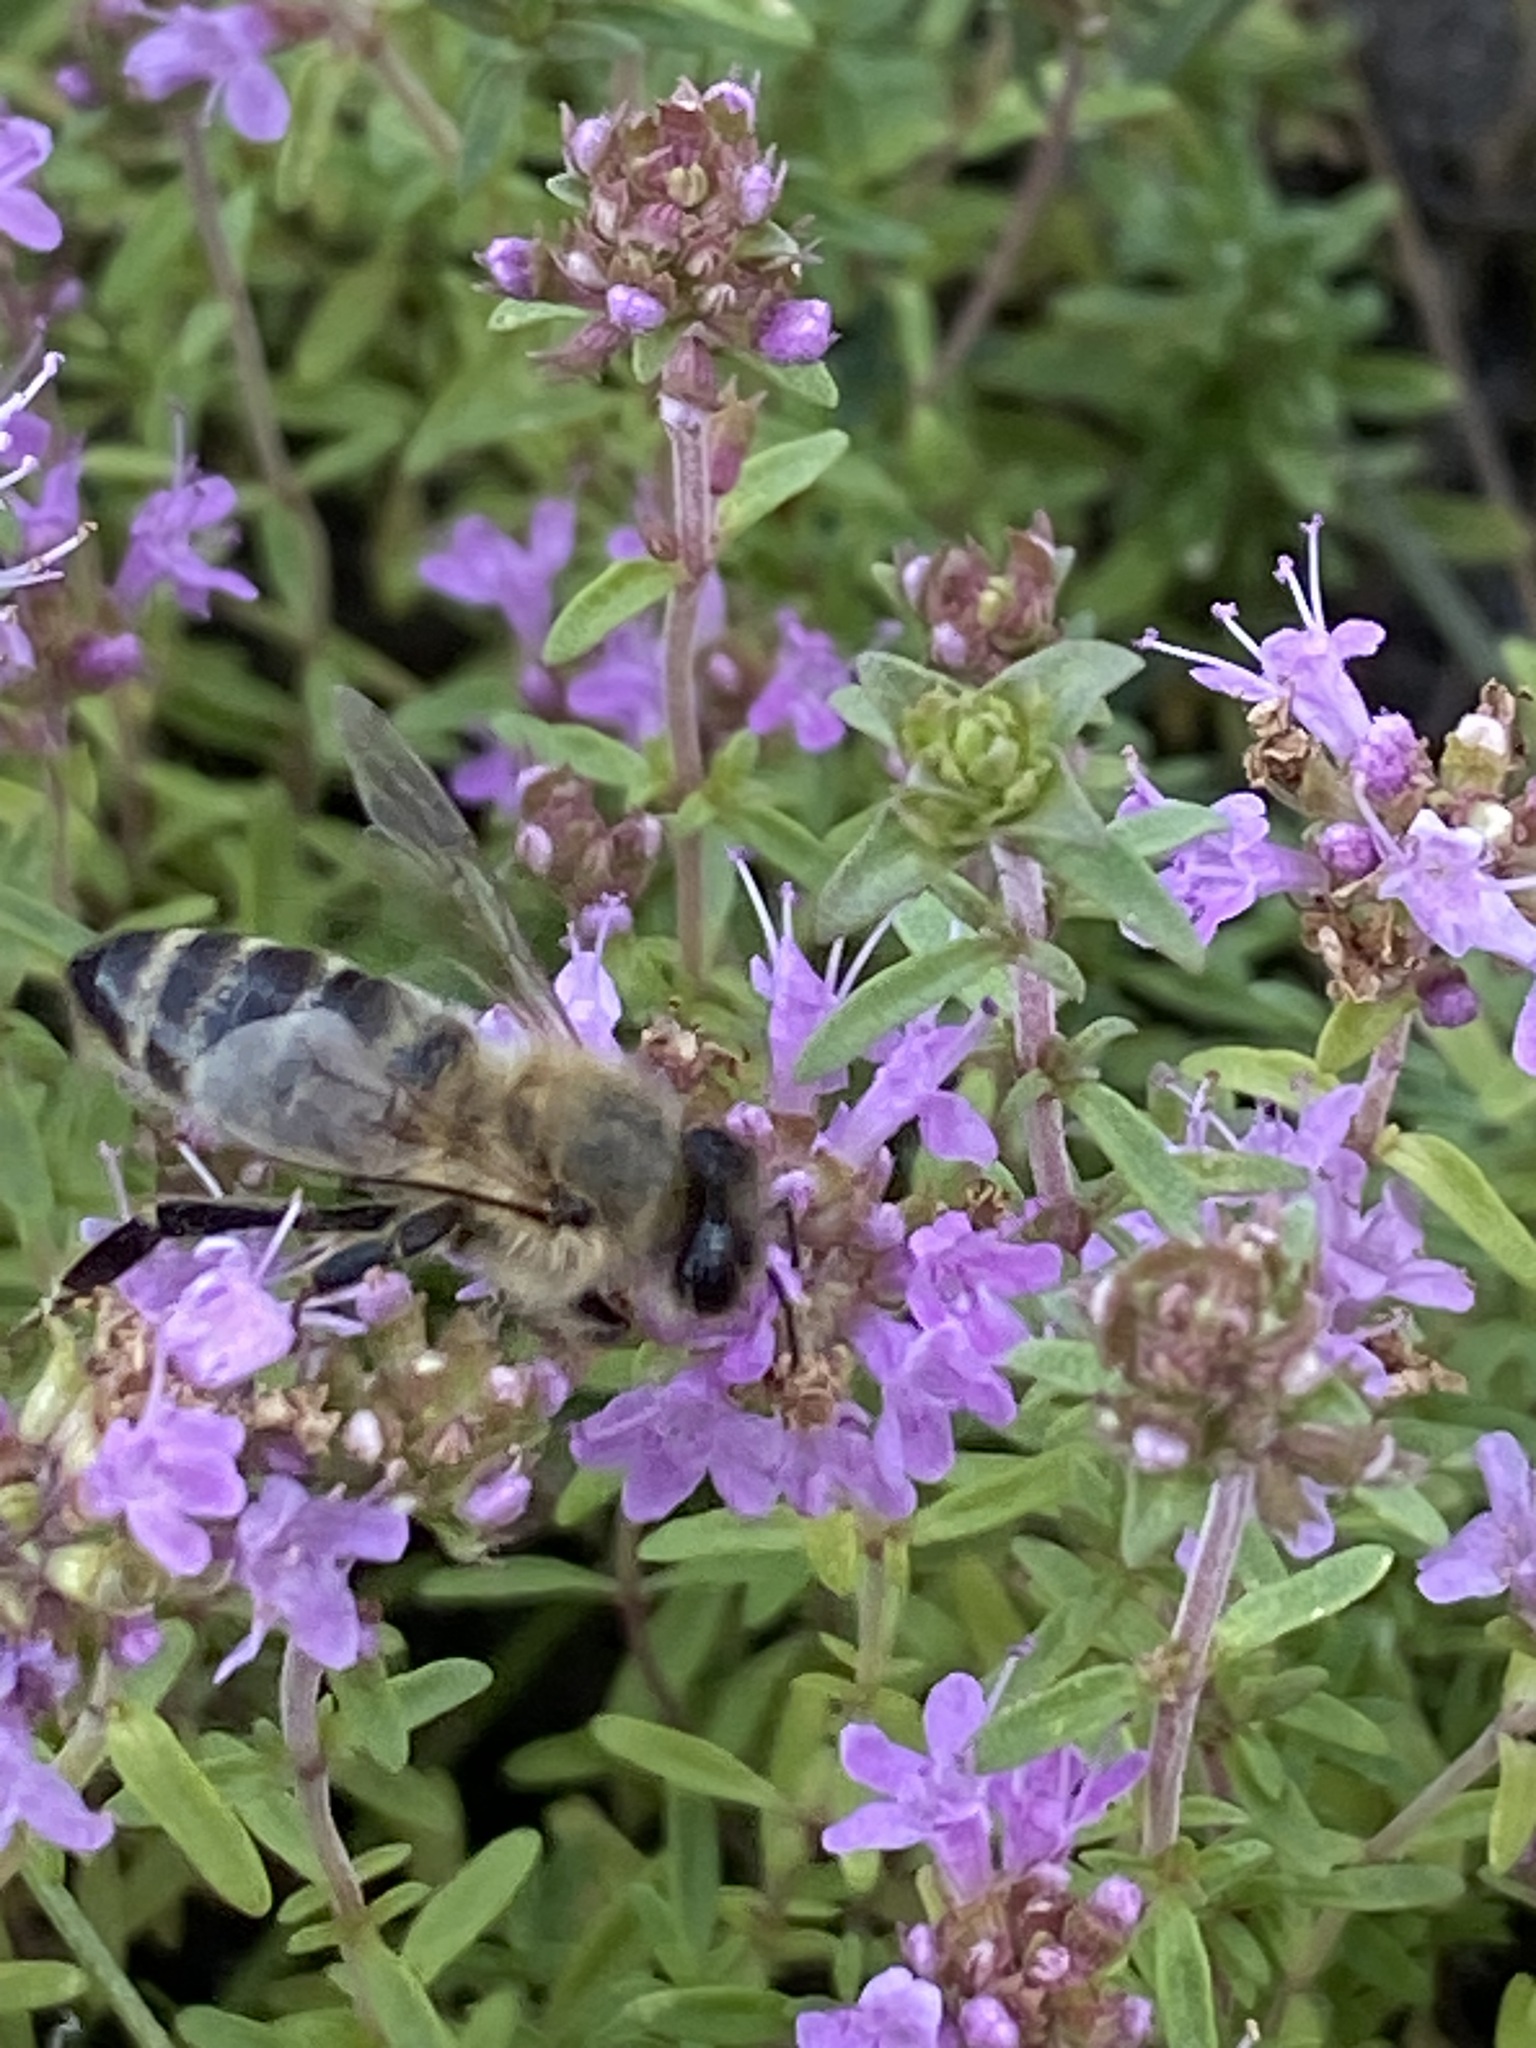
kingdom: Animalia
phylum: Arthropoda
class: Insecta
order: Hymenoptera
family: Apidae
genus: Apis
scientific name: Apis mellifera
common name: Honey bee
